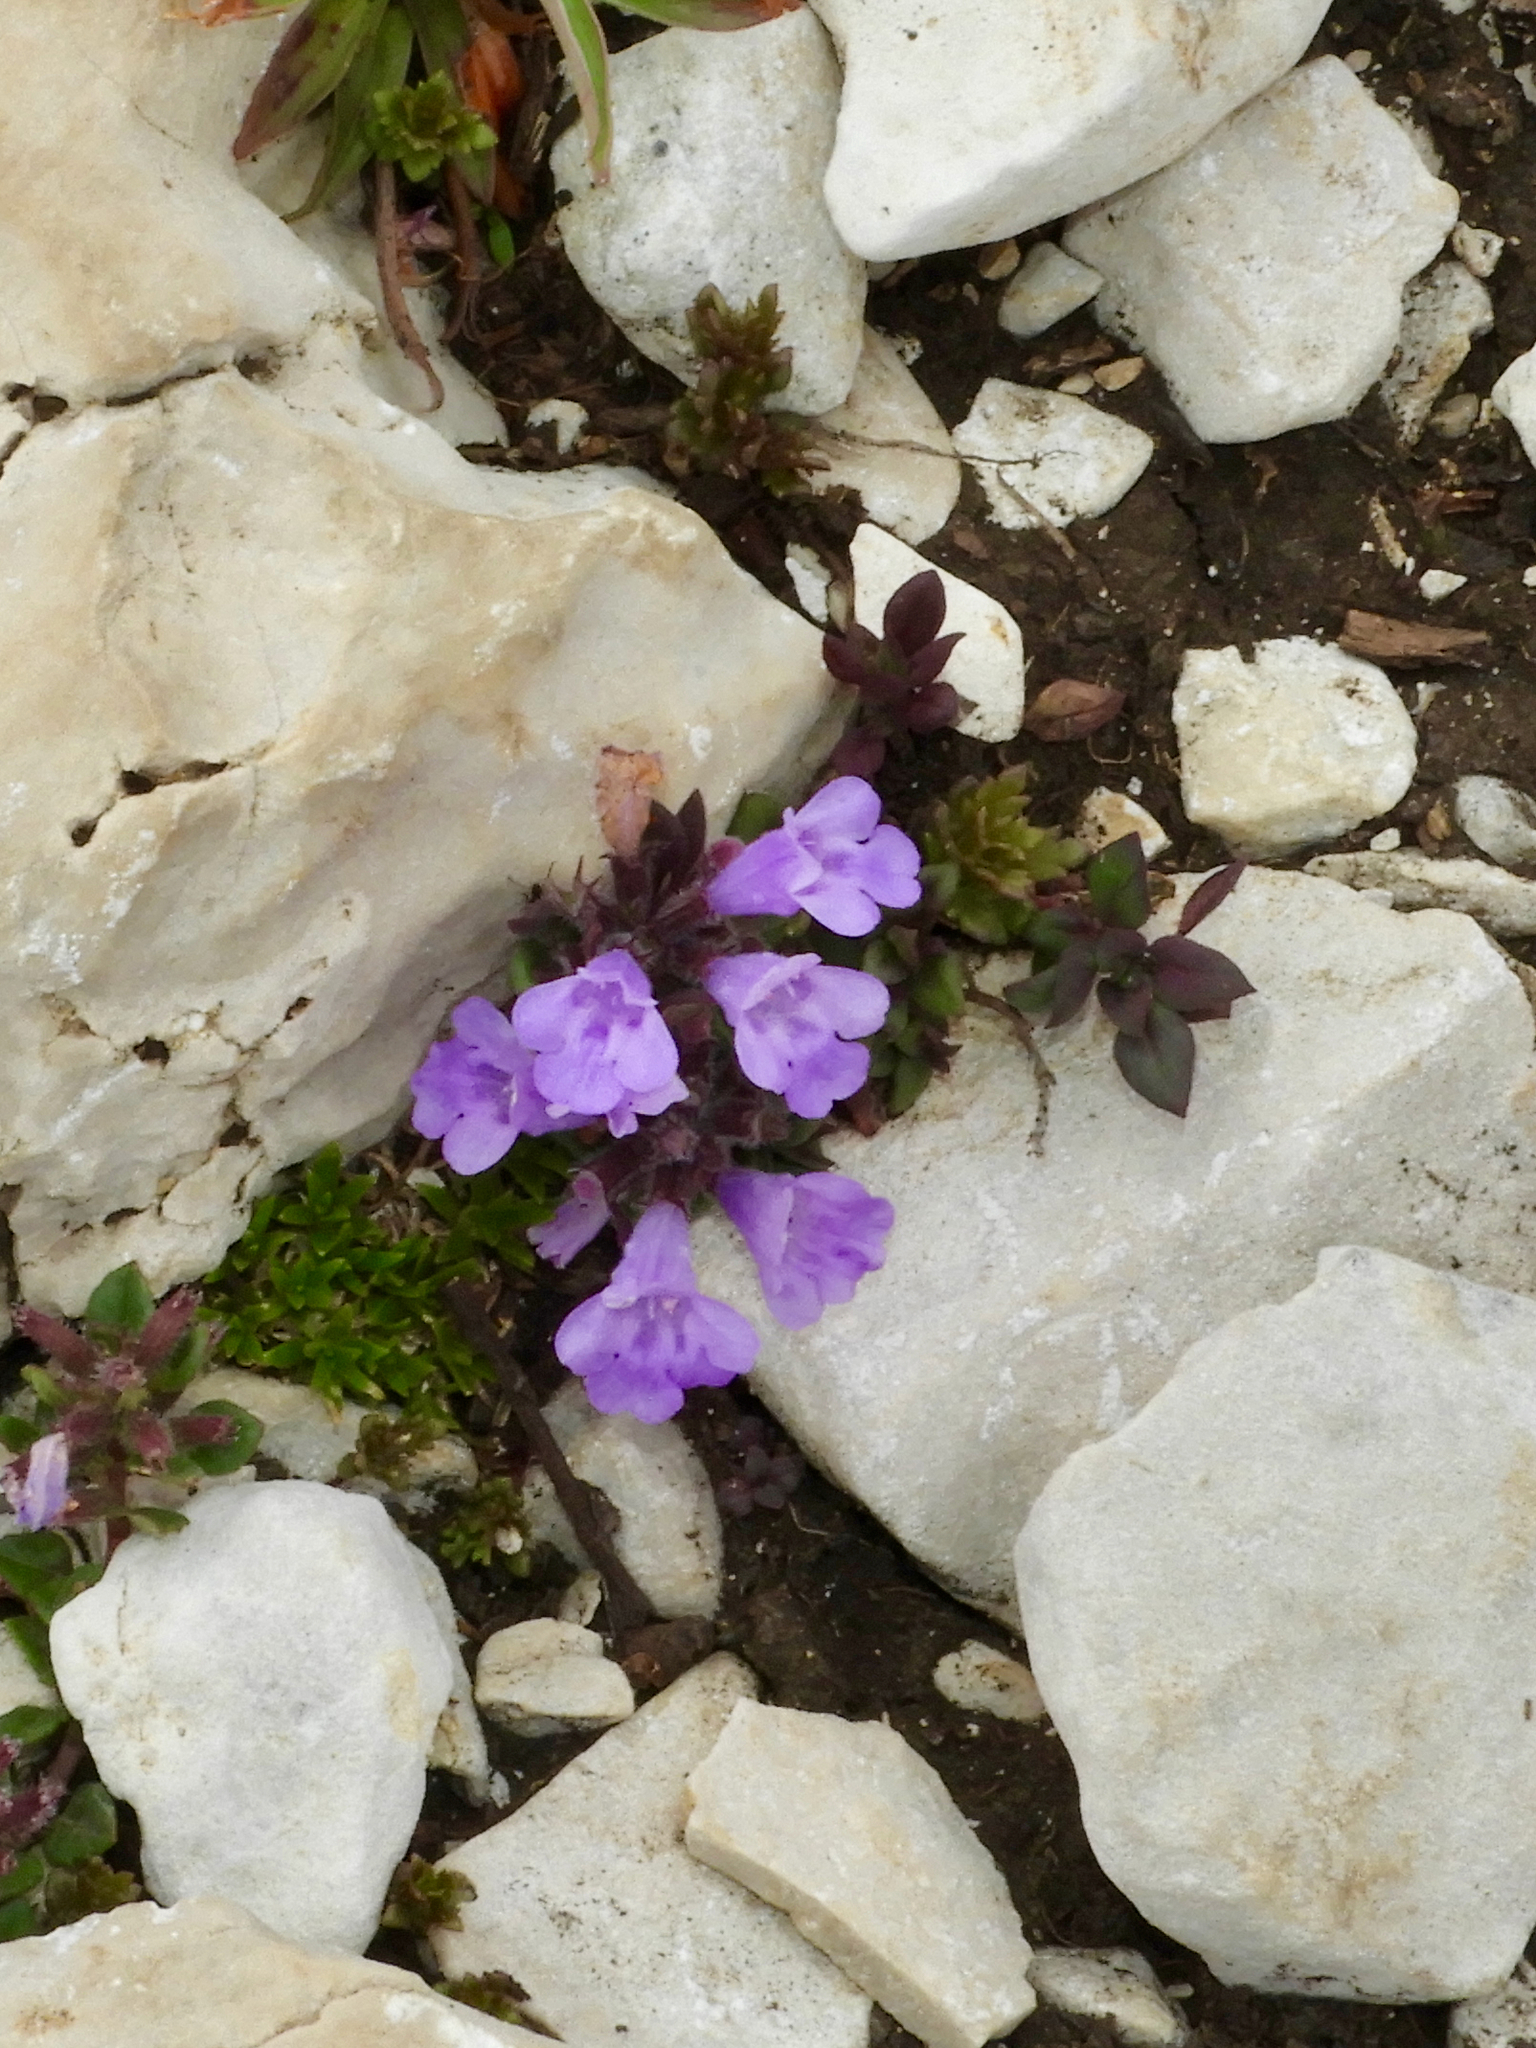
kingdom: Plantae
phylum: Tracheophyta
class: Magnoliopsida
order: Lamiales
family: Lamiaceae
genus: Clinopodium
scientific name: Clinopodium alpinum
